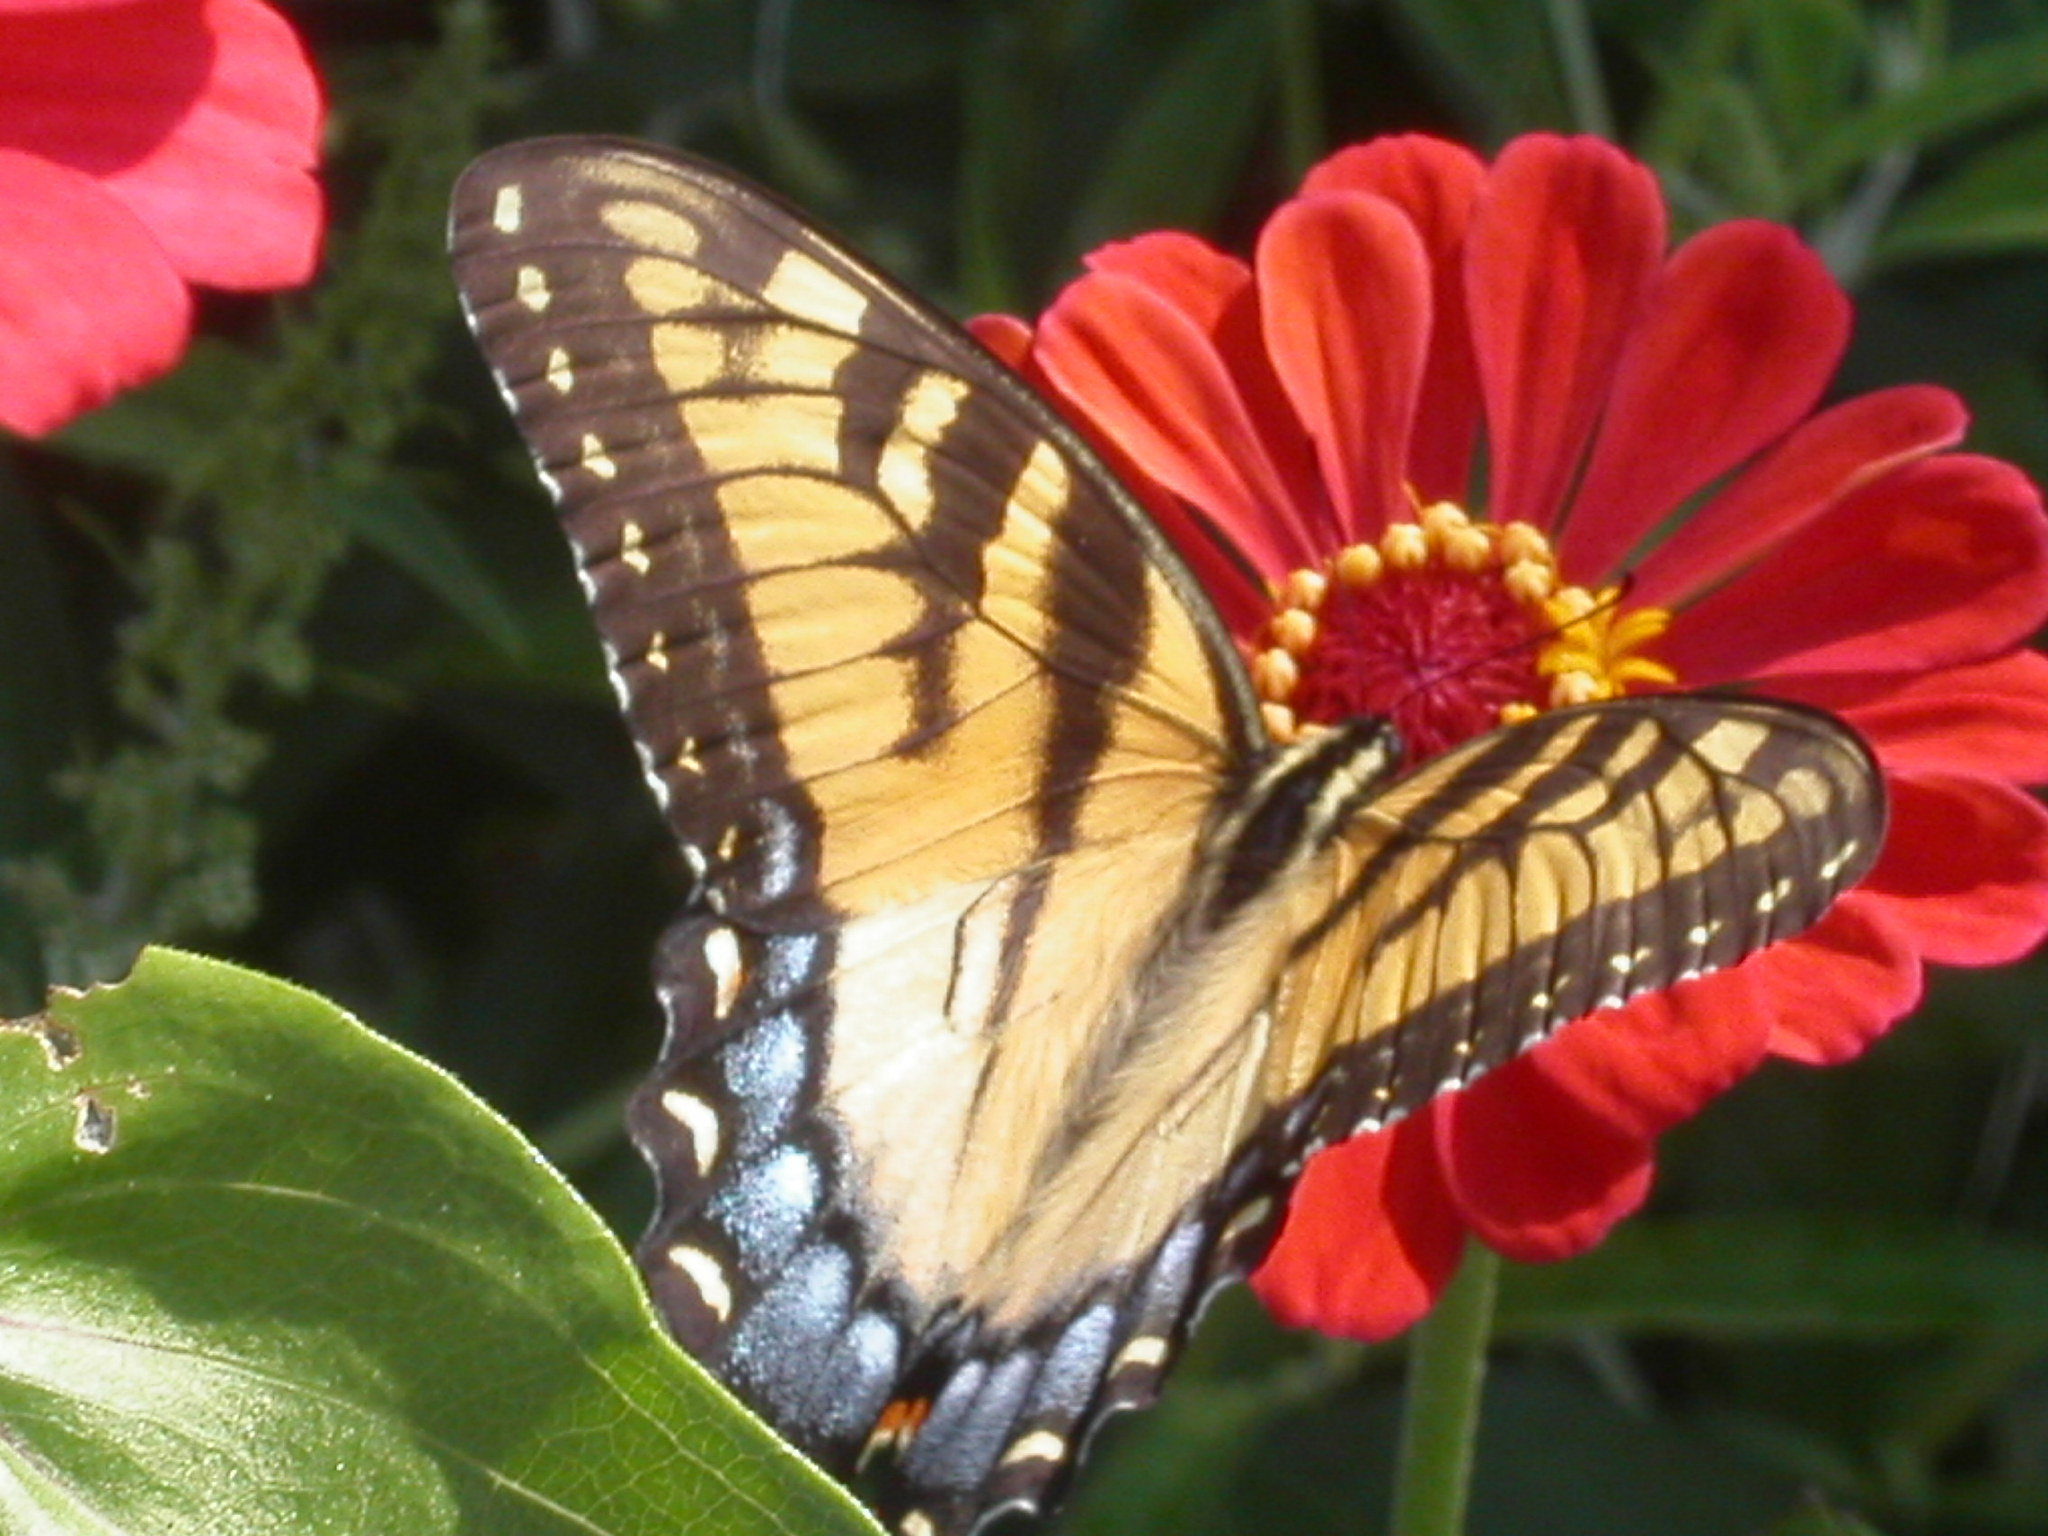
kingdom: Animalia
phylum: Arthropoda
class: Insecta
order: Lepidoptera
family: Papilionidae
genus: Papilio
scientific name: Papilio glaucus
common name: Tiger swallowtail
